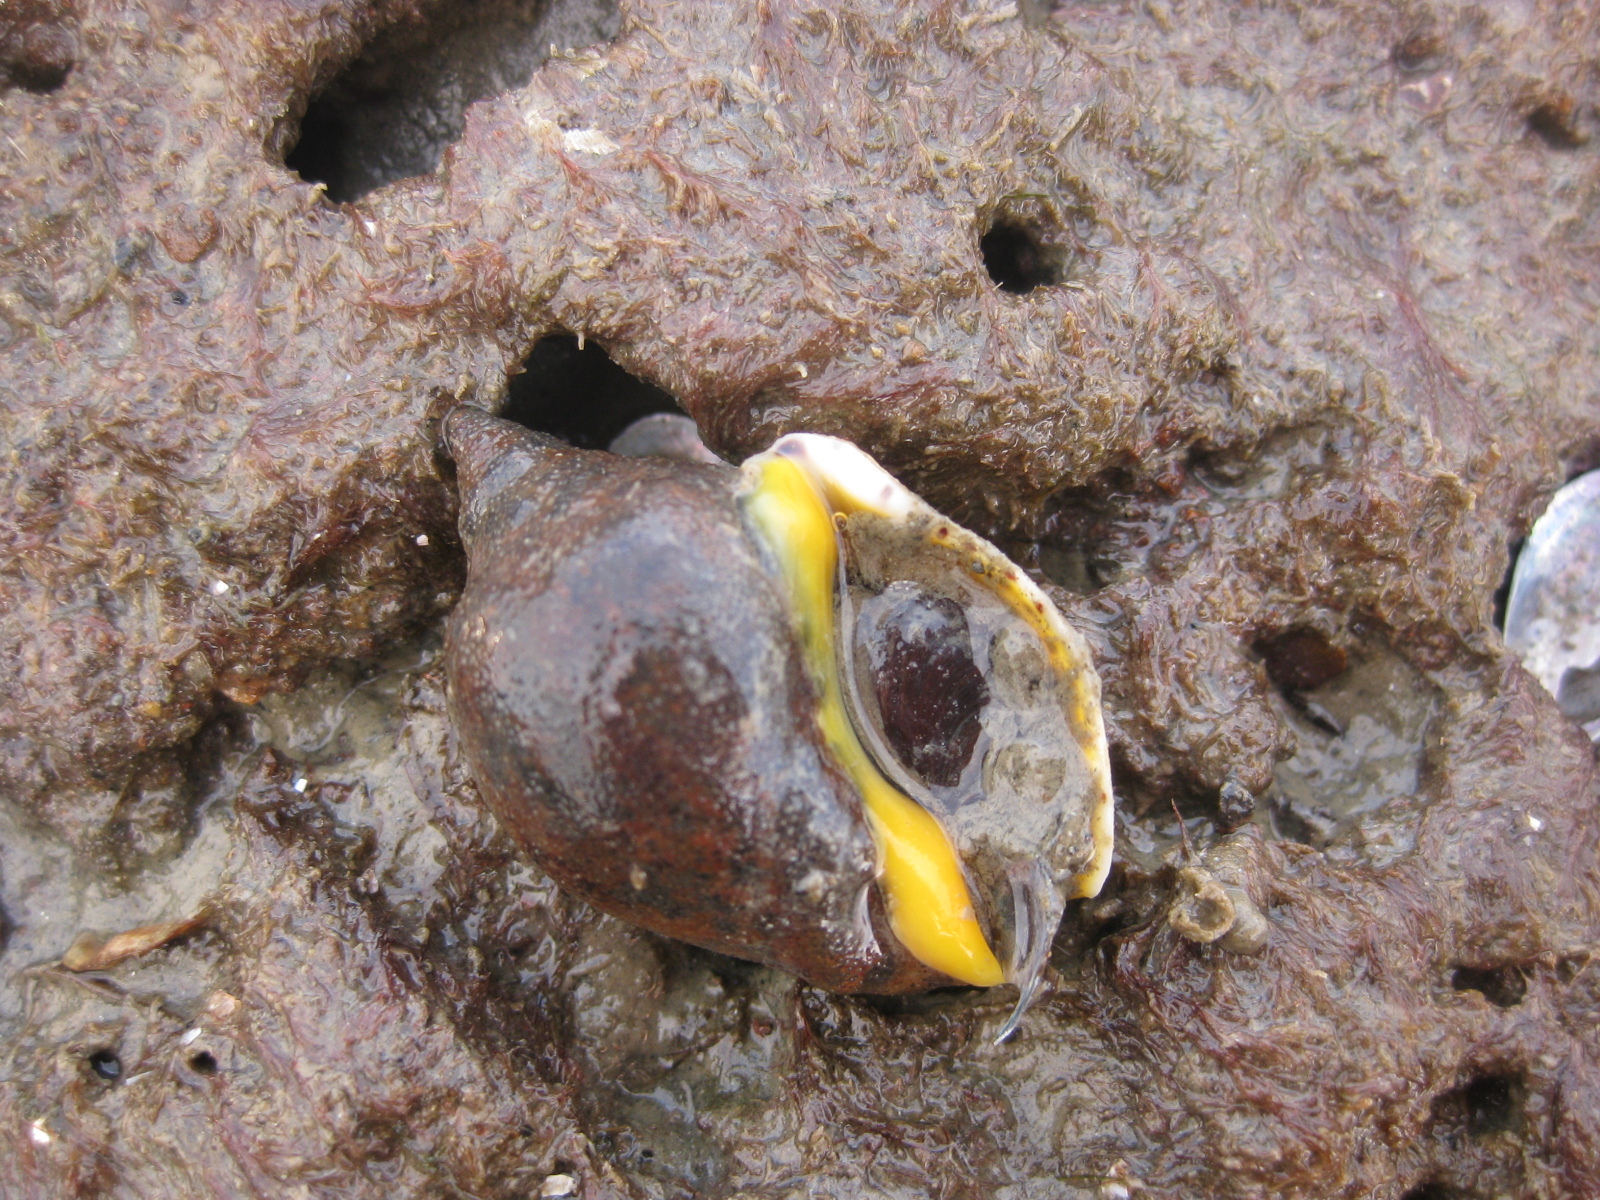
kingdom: Animalia
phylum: Mollusca
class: Gastropoda
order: Neogastropoda
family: Cominellidae
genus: Cominella
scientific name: Cominella adspersa
